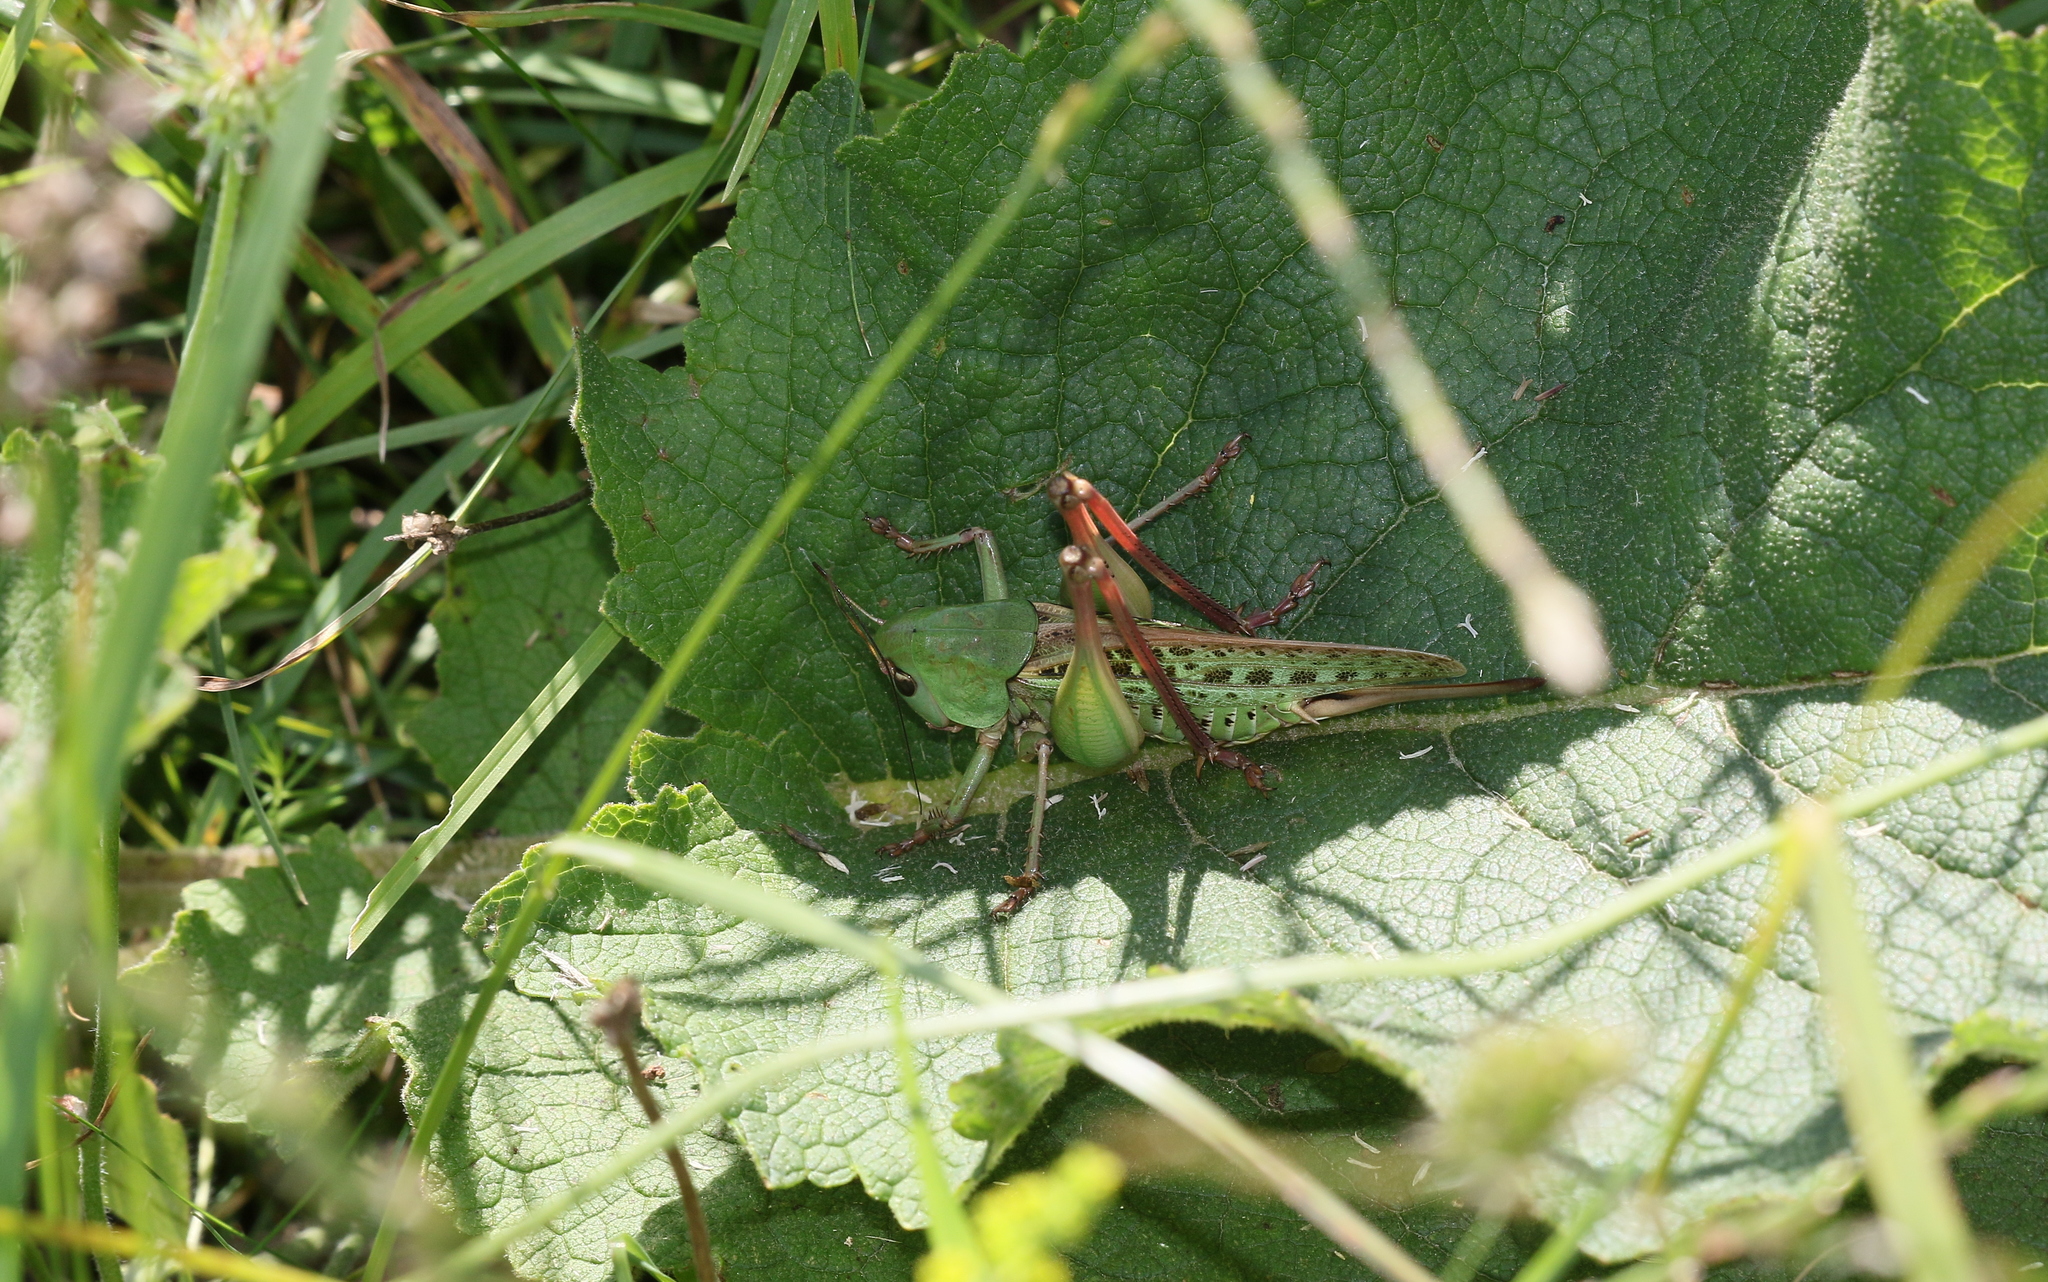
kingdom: Animalia
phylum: Arthropoda
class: Insecta
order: Orthoptera
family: Tettigoniidae
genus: Decticus
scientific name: Decticus verrucivorus
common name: Wart-biter
